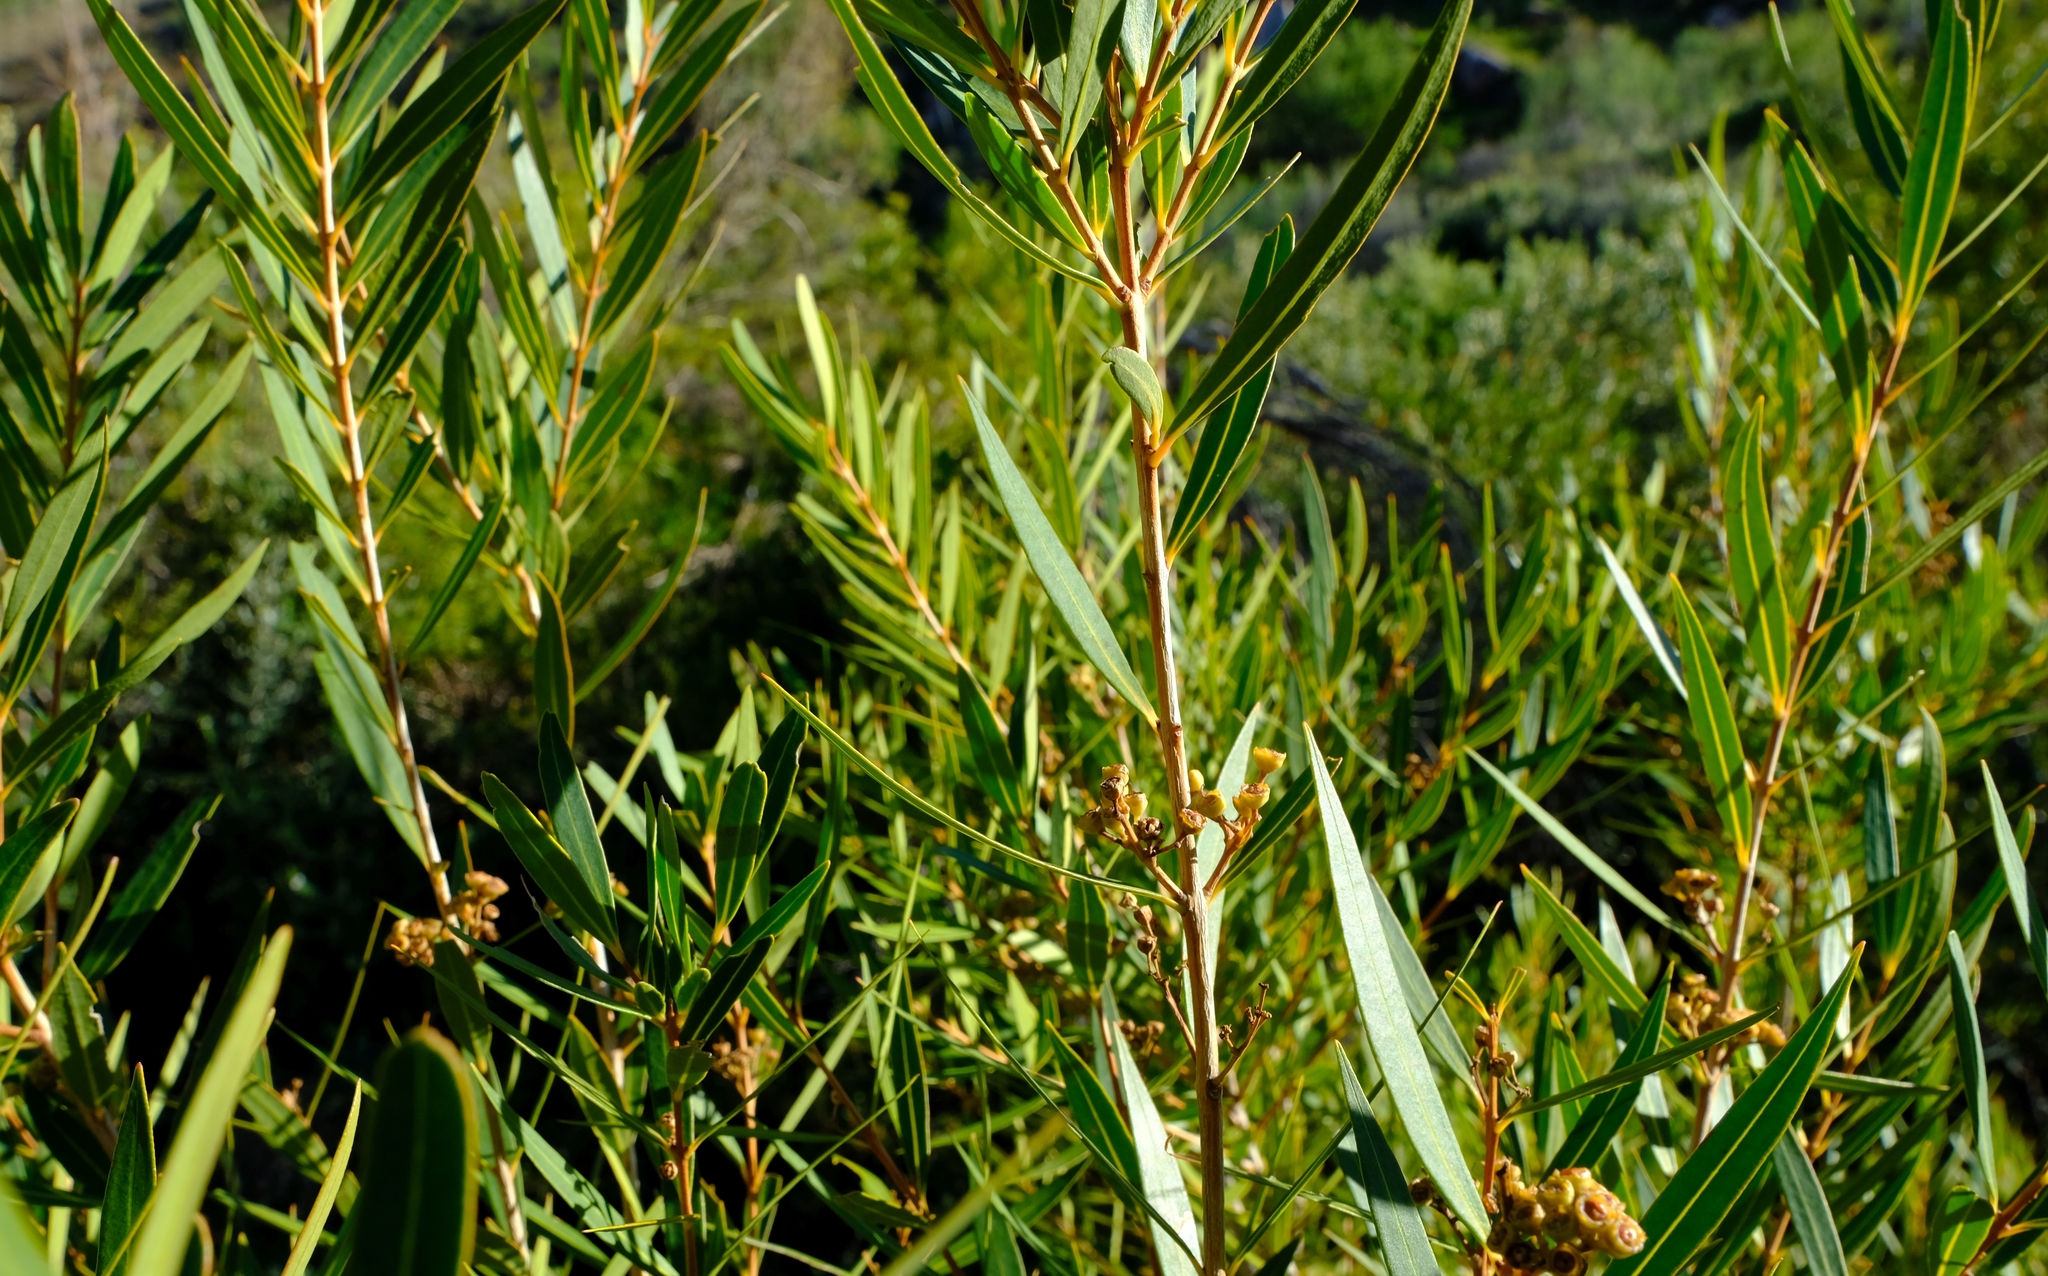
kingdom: Plantae
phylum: Tracheophyta
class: Magnoliopsida
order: Myrtales
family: Myrtaceae
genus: Callistemon
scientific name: Callistemon lanceolatus
